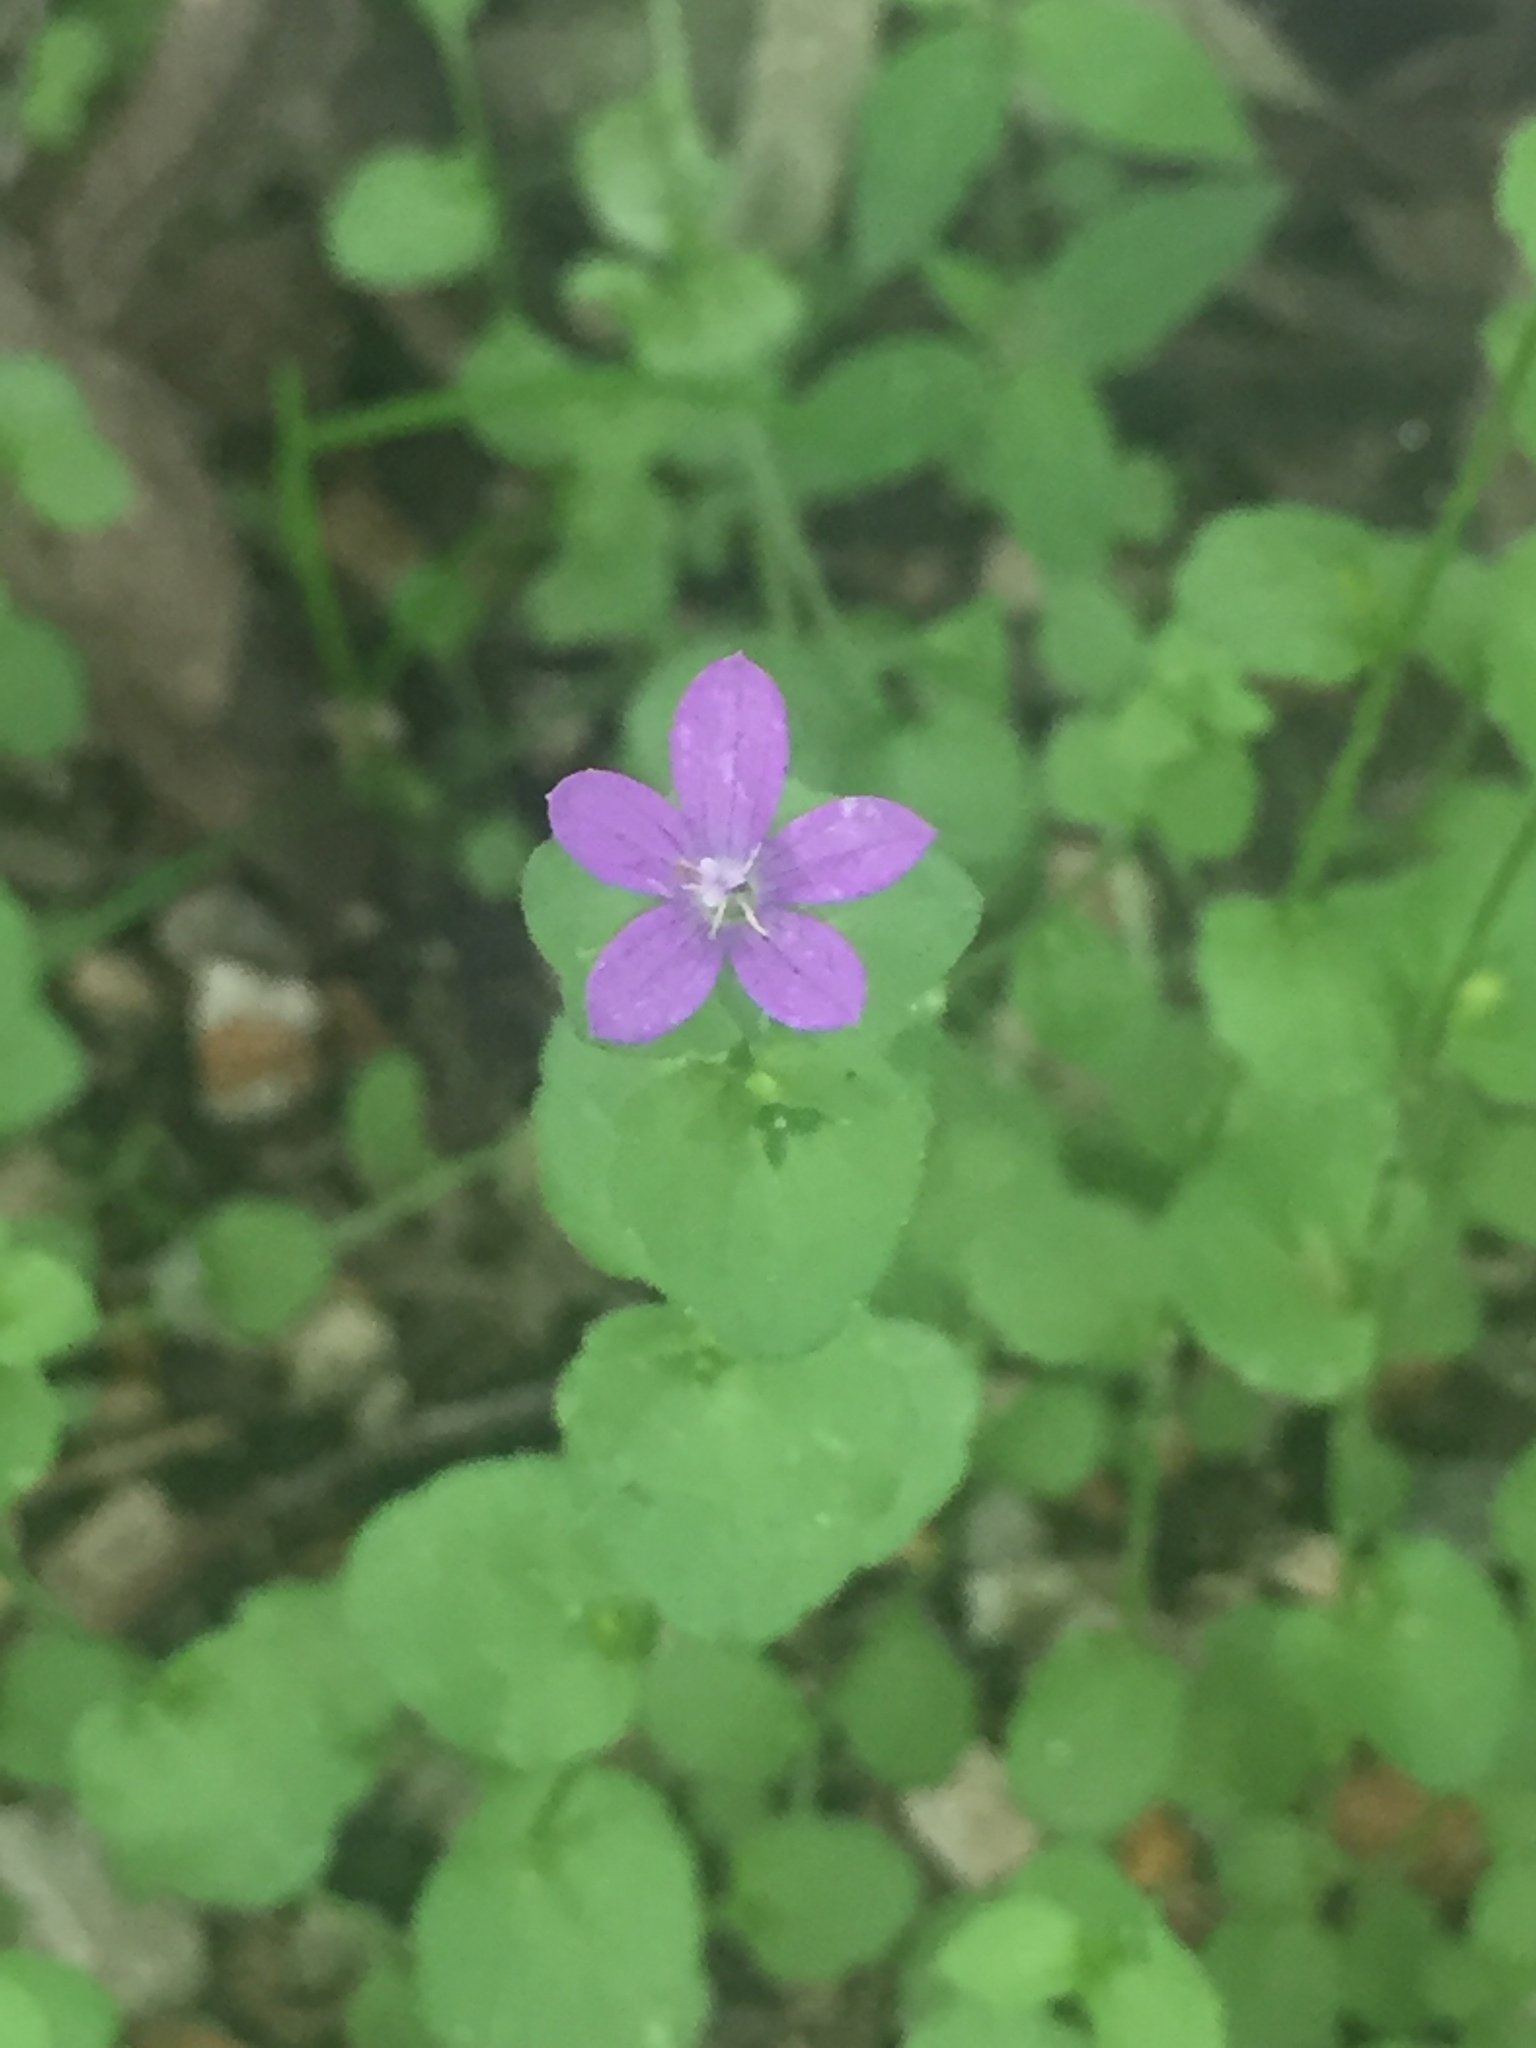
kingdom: Plantae
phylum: Tracheophyta
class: Magnoliopsida
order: Asterales
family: Campanulaceae
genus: Triodanis
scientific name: Triodanis perfoliata
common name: Clasping venus' looking-glass
